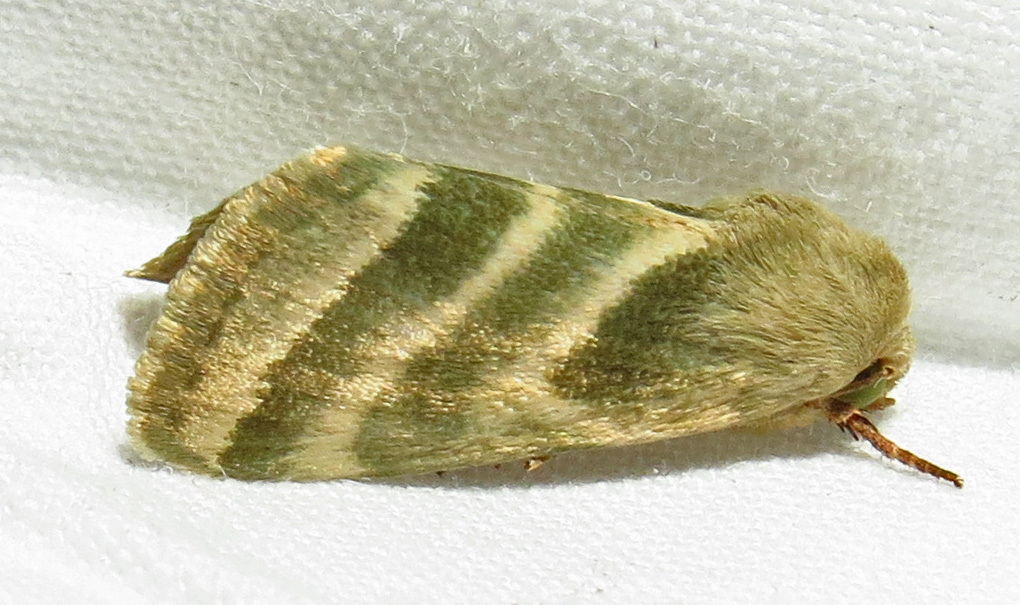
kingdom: Animalia
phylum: Arthropoda
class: Insecta
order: Lepidoptera
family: Noctuidae
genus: Schinia
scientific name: Schinia trifascia
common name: Three-lined flower moth
